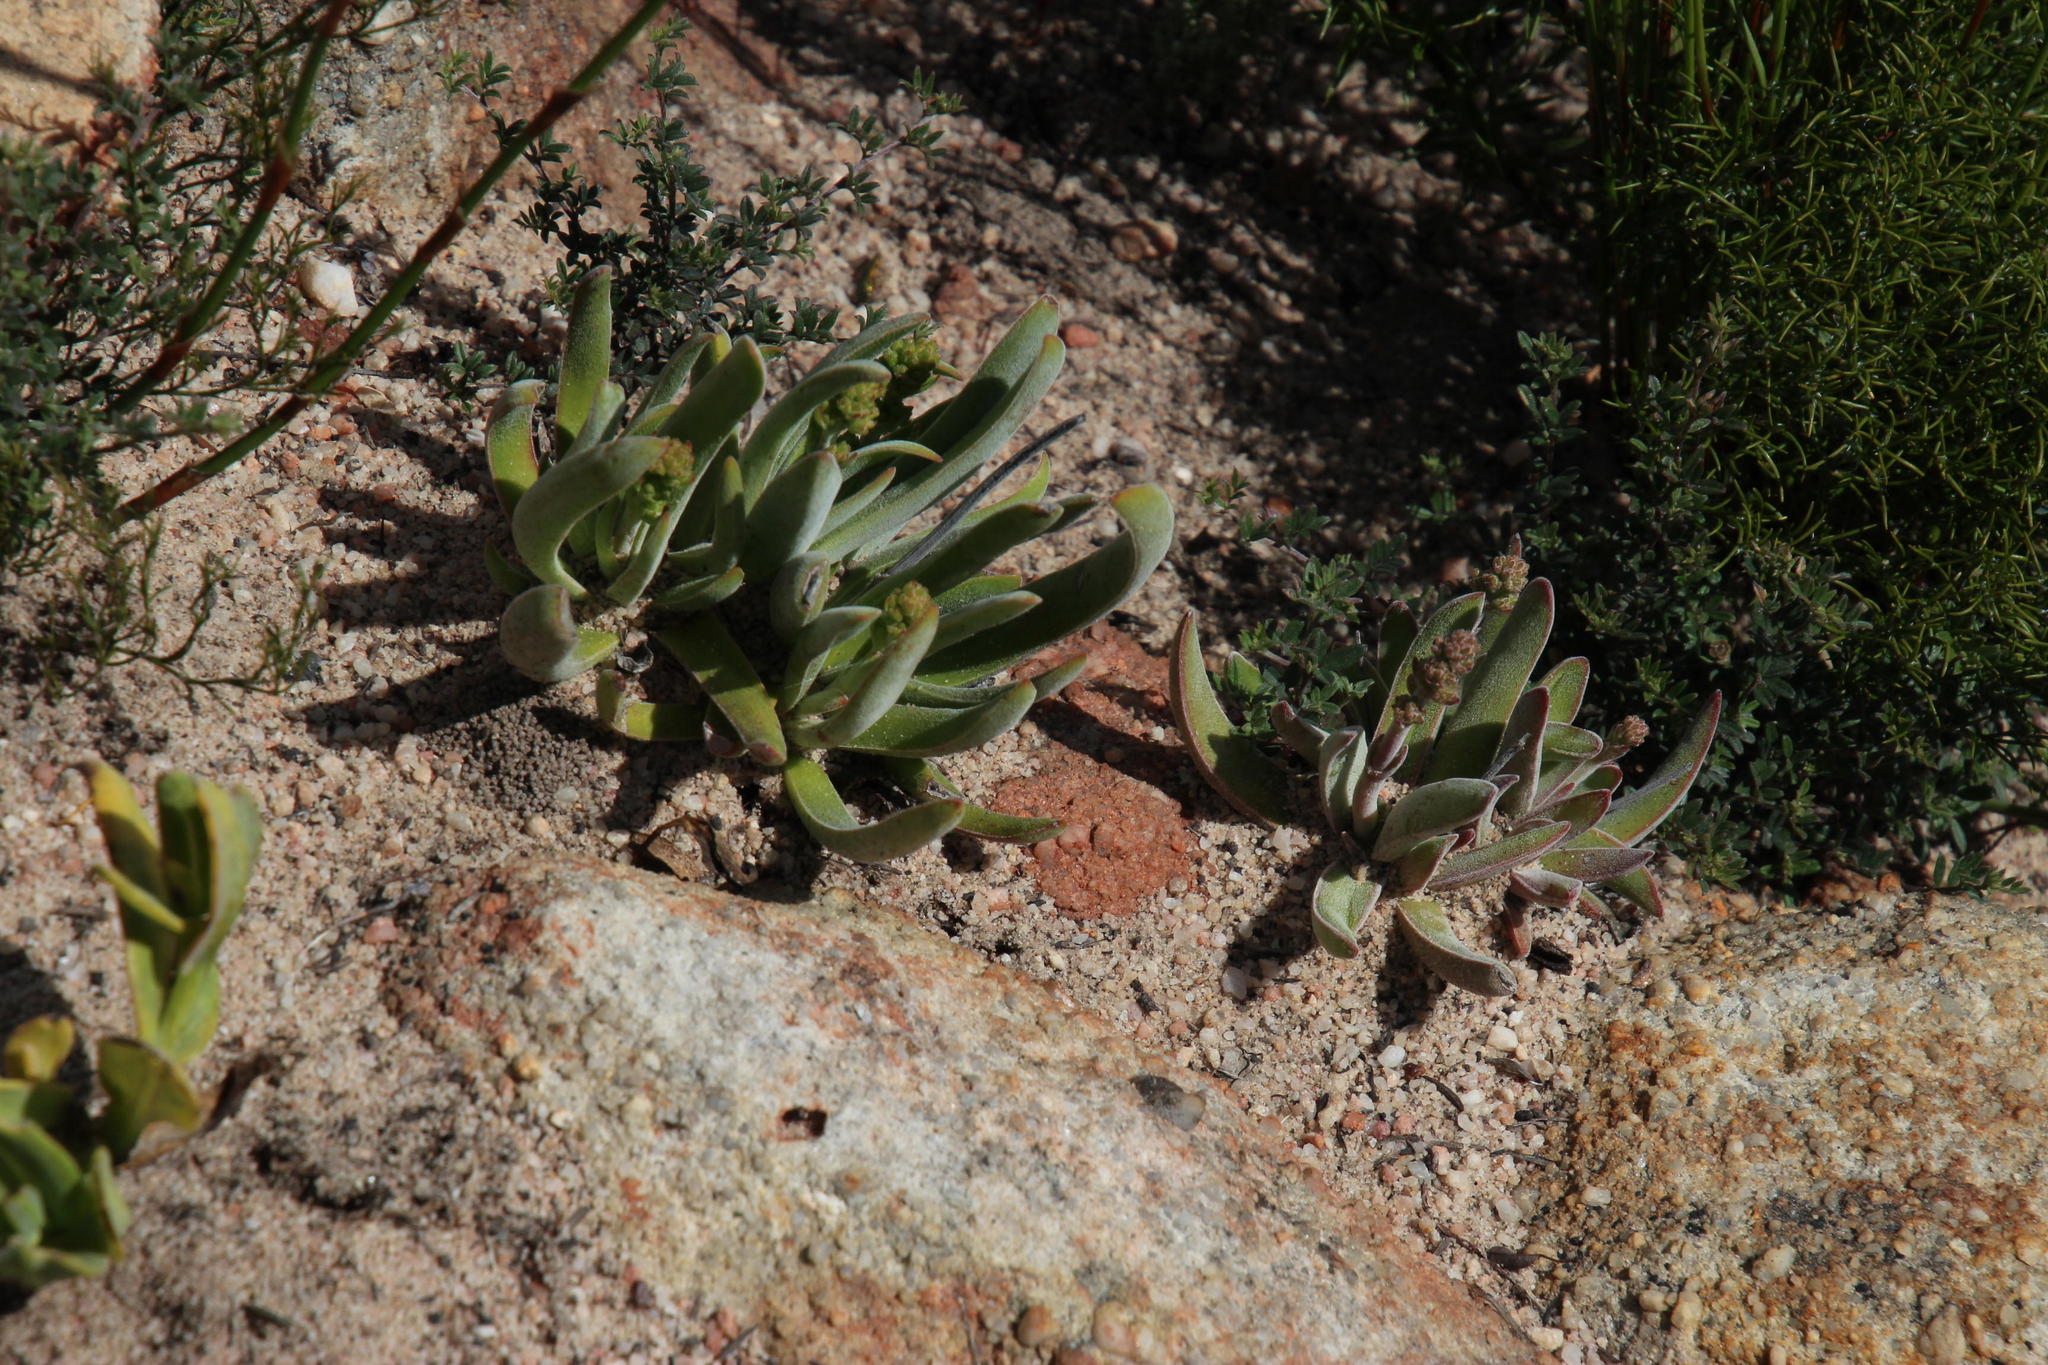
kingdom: Plantae
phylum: Tracheophyta
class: Magnoliopsida
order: Saxifragales
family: Crassulaceae
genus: Crassula
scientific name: Crassula nudicaulis
